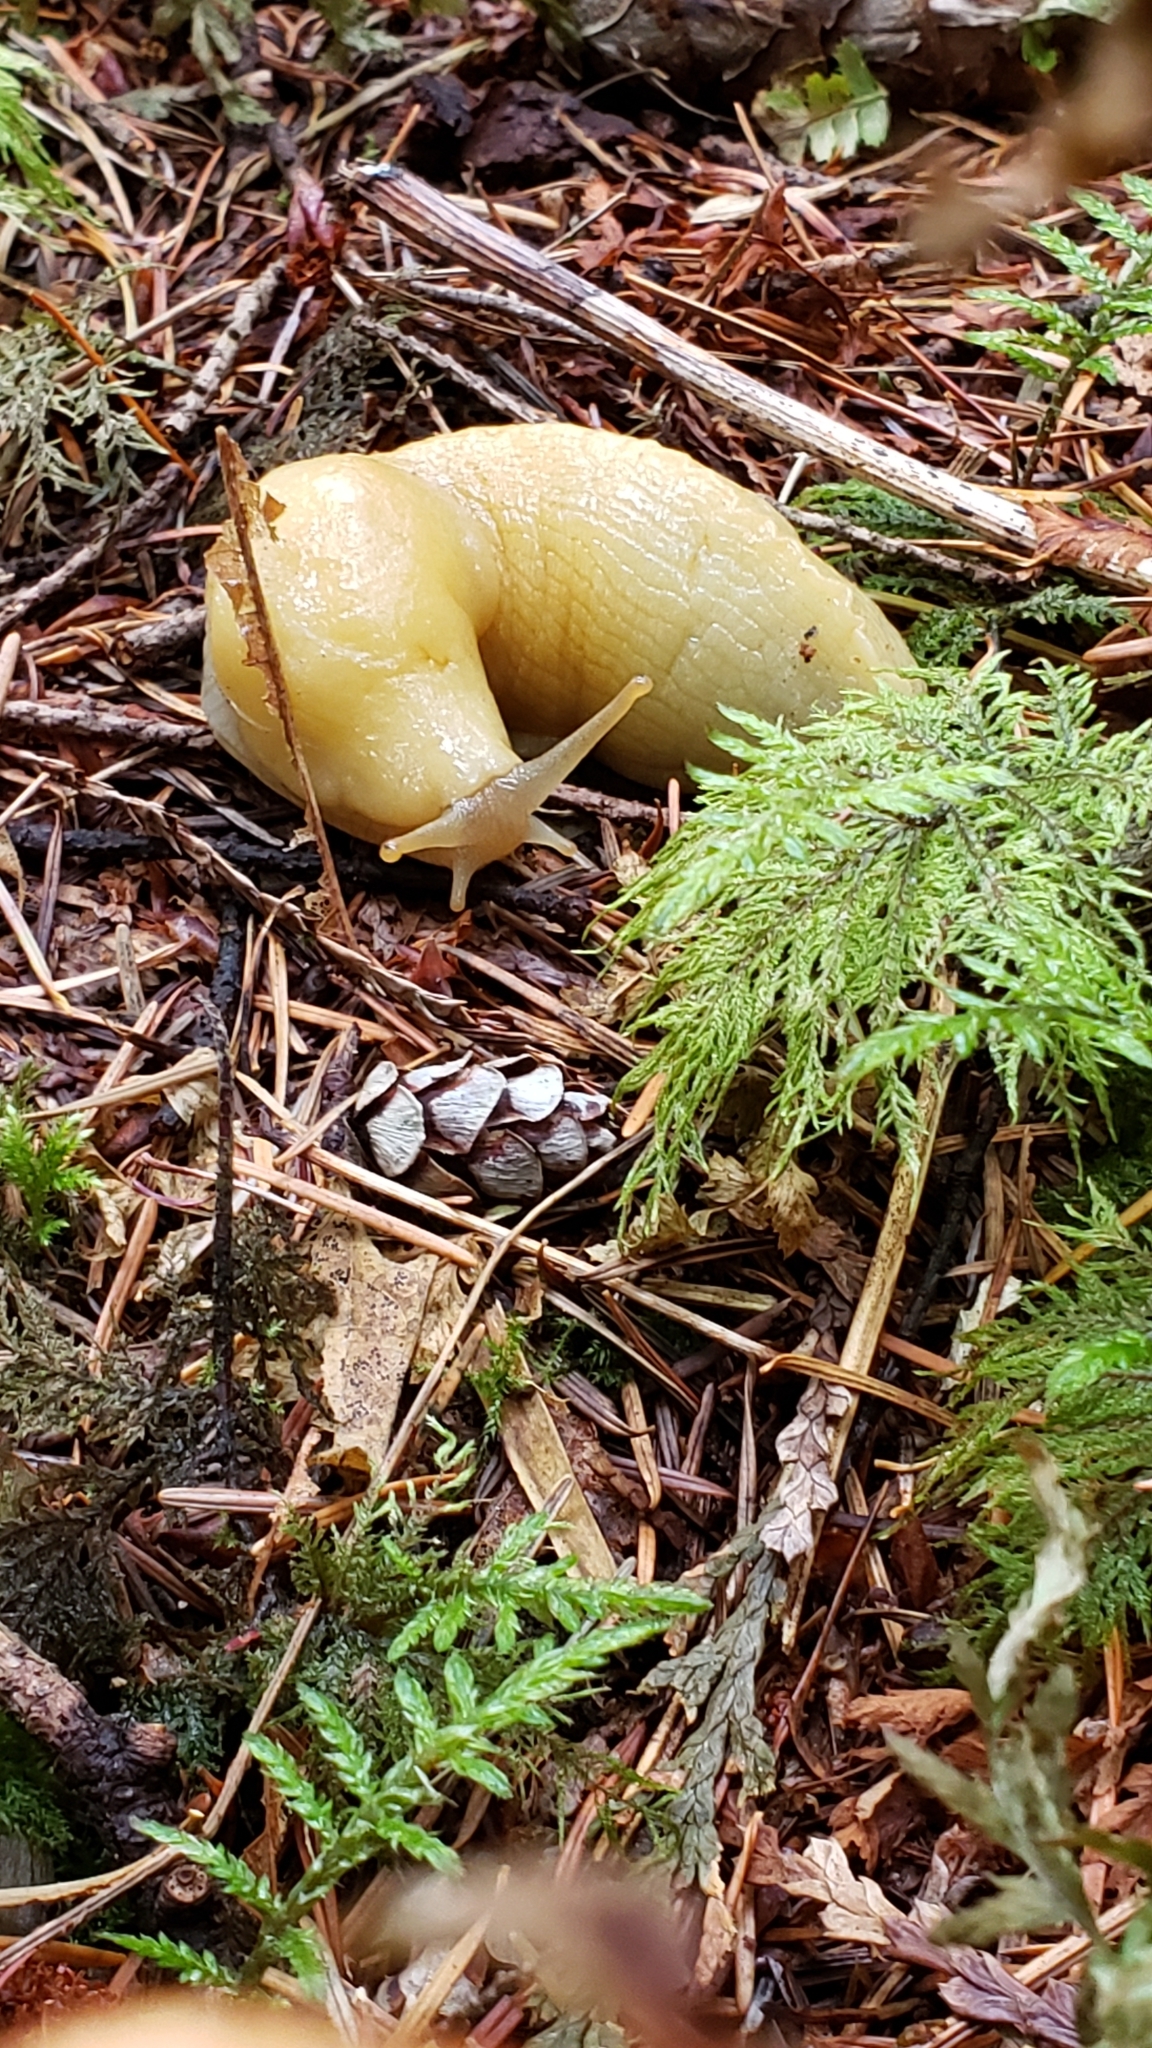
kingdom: Animalia
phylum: Mollusca
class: Gastropoda
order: Stylommatophora
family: Ariolimacidae
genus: Ariolimax
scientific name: Ariolimax columbianus
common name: Pacific banana slug
